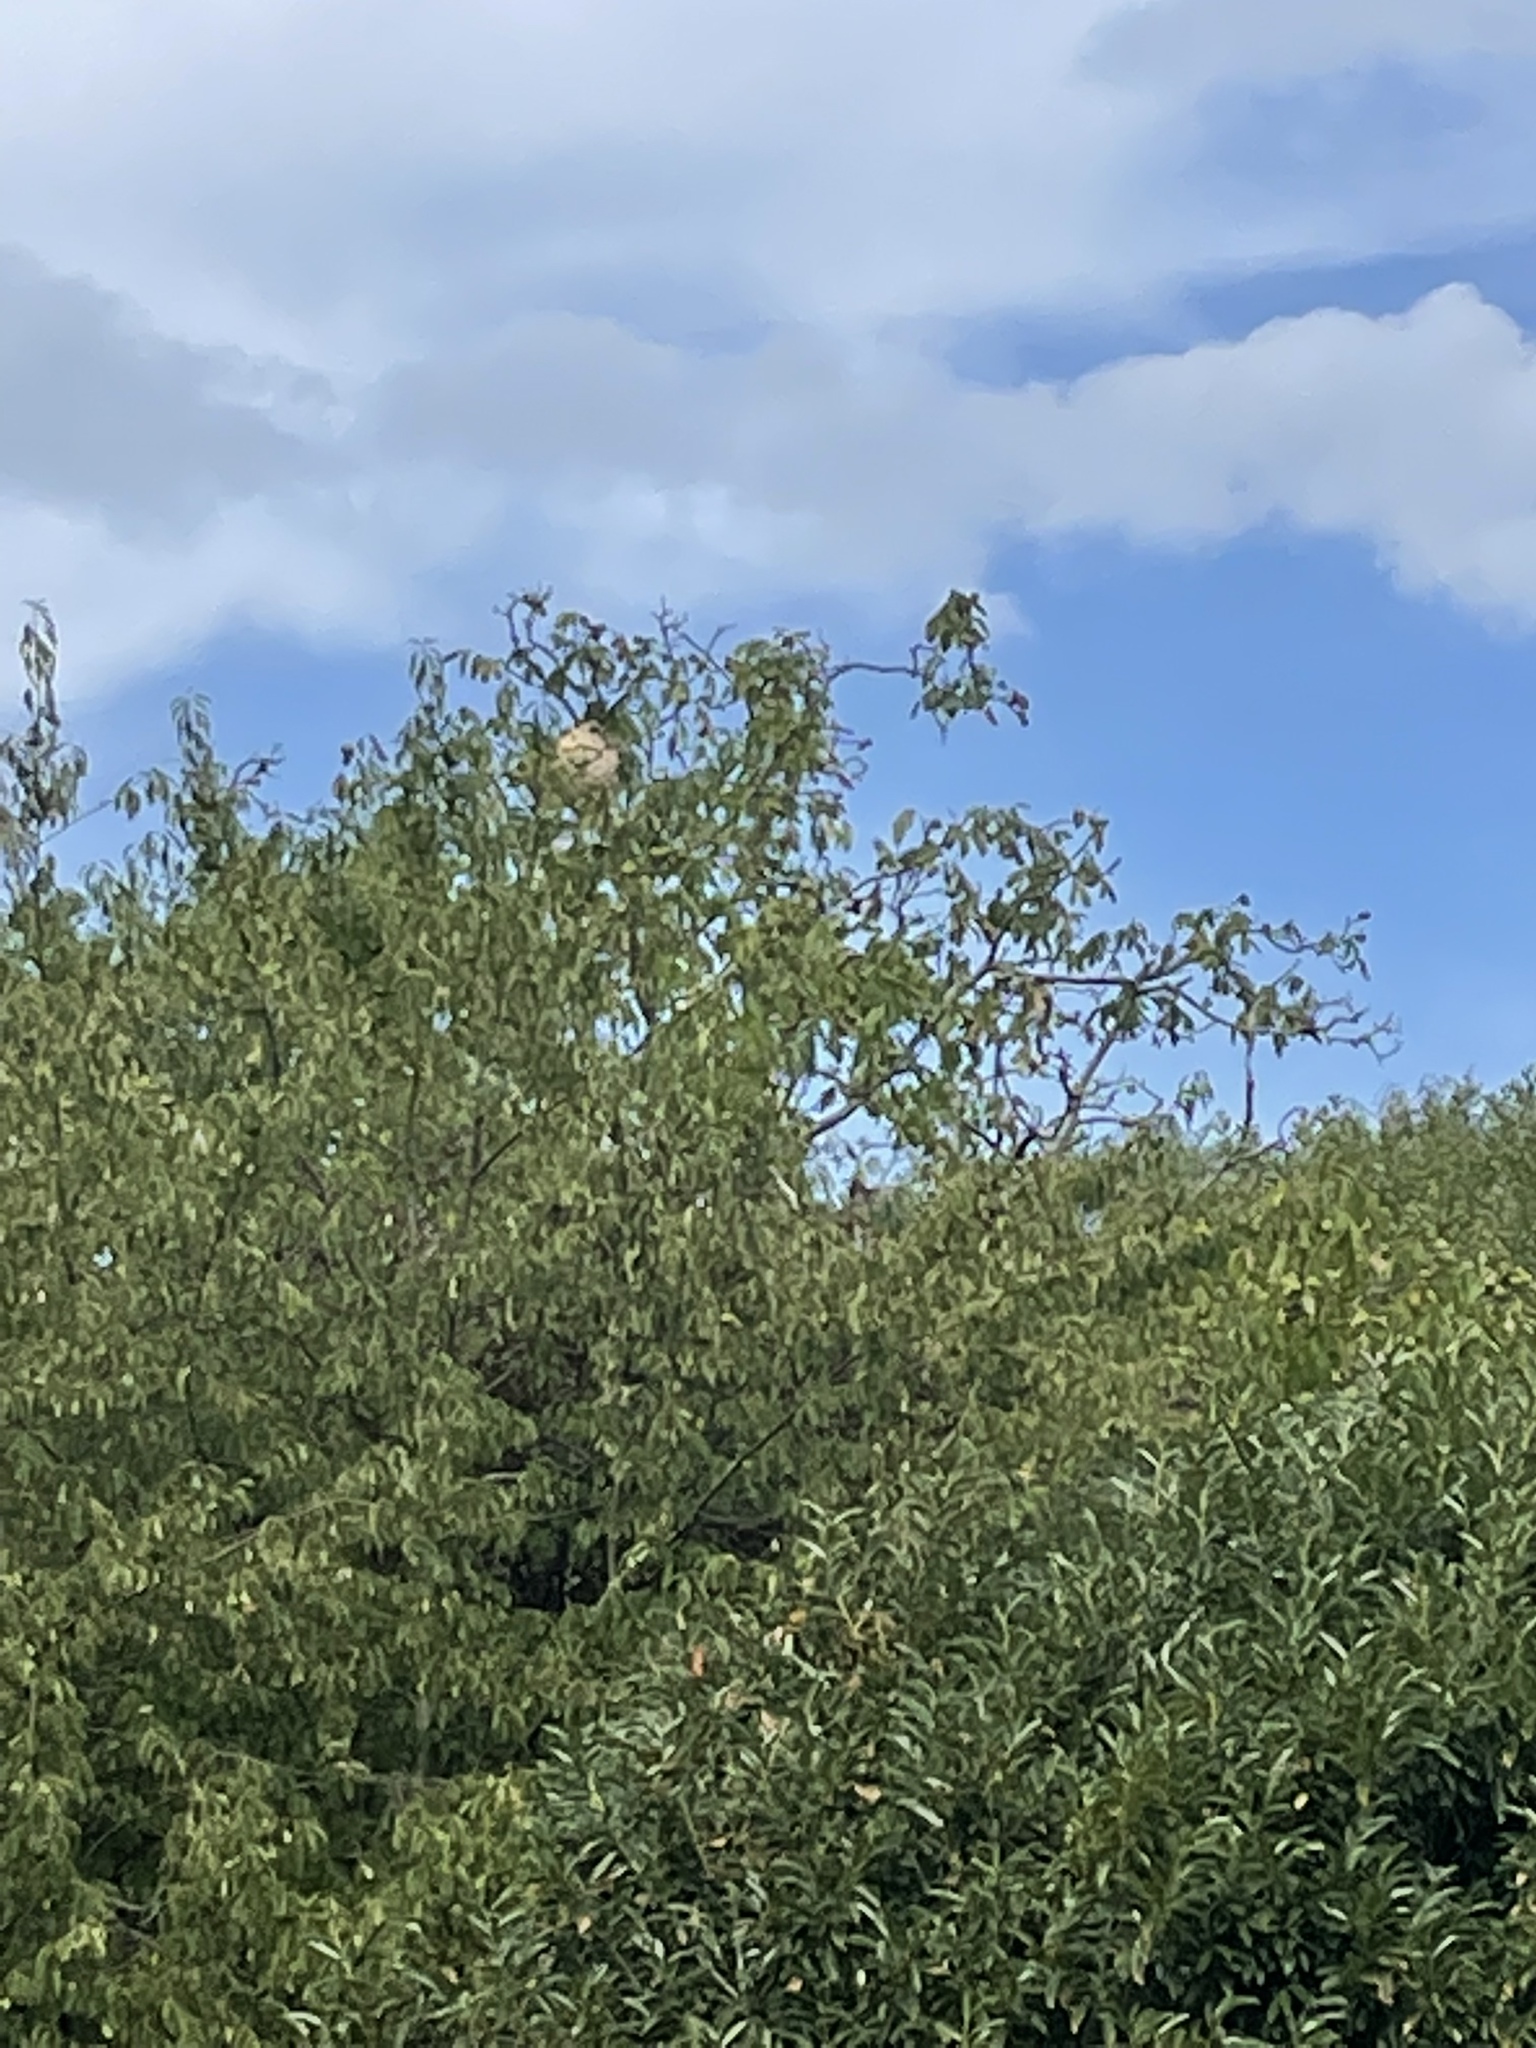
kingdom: Animalia
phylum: Arthropoda
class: Insecta
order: Hymenoptera
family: Vespidae
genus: Vespa
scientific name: Vespa velutina
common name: Asian hornet
